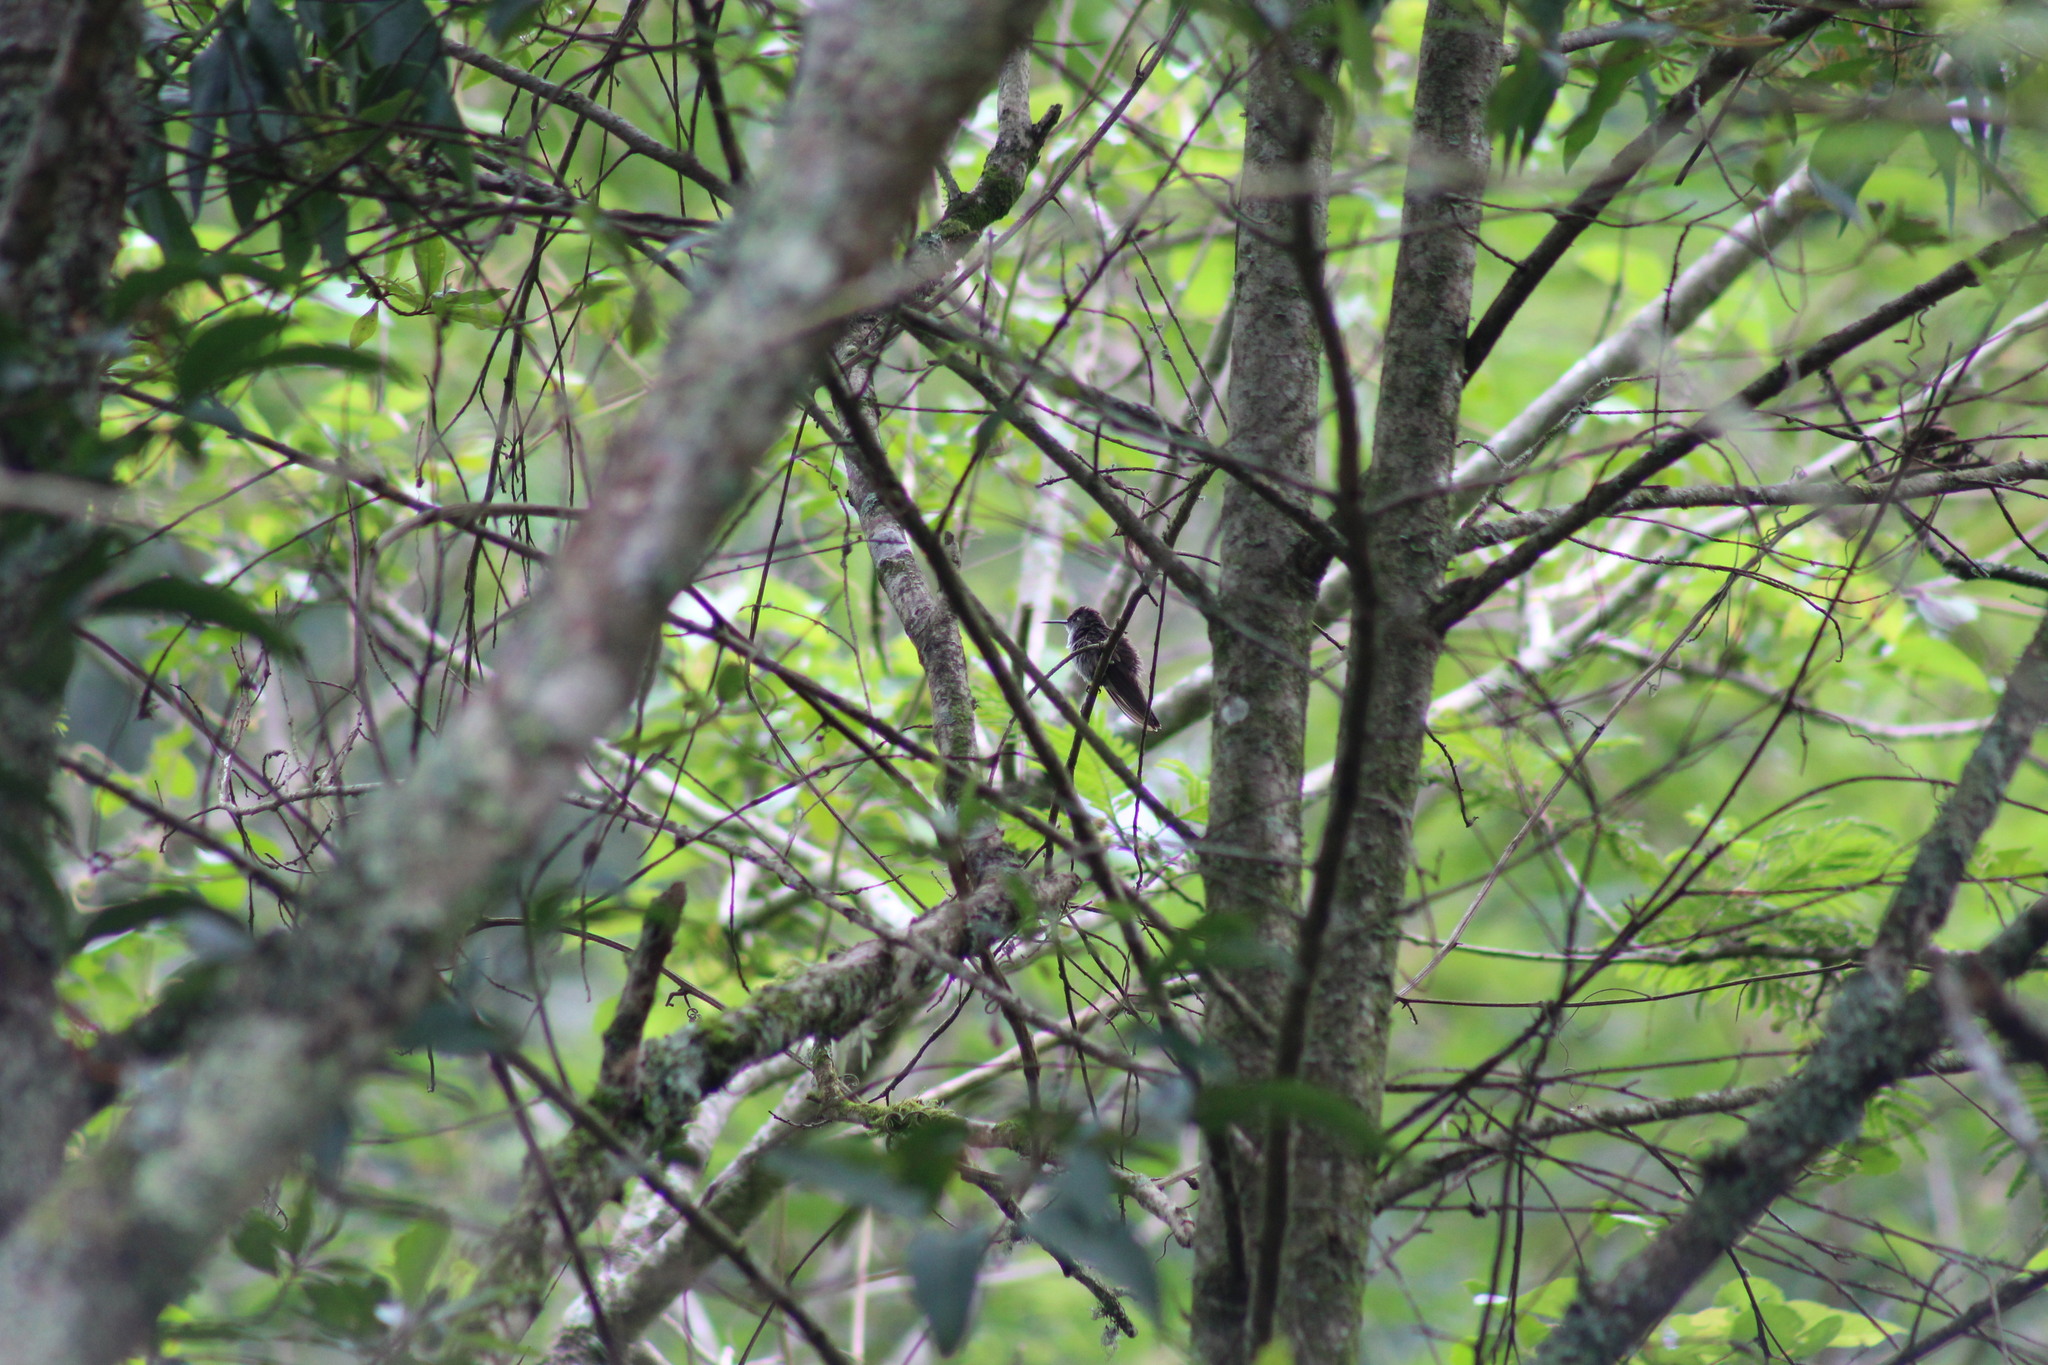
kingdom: Animalia
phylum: Chordata
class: Aves
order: Apodiformes
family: Trochilidae
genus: Saucerottia
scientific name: Saucerottia cyanocephala
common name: Azure-crowned hummingbird
